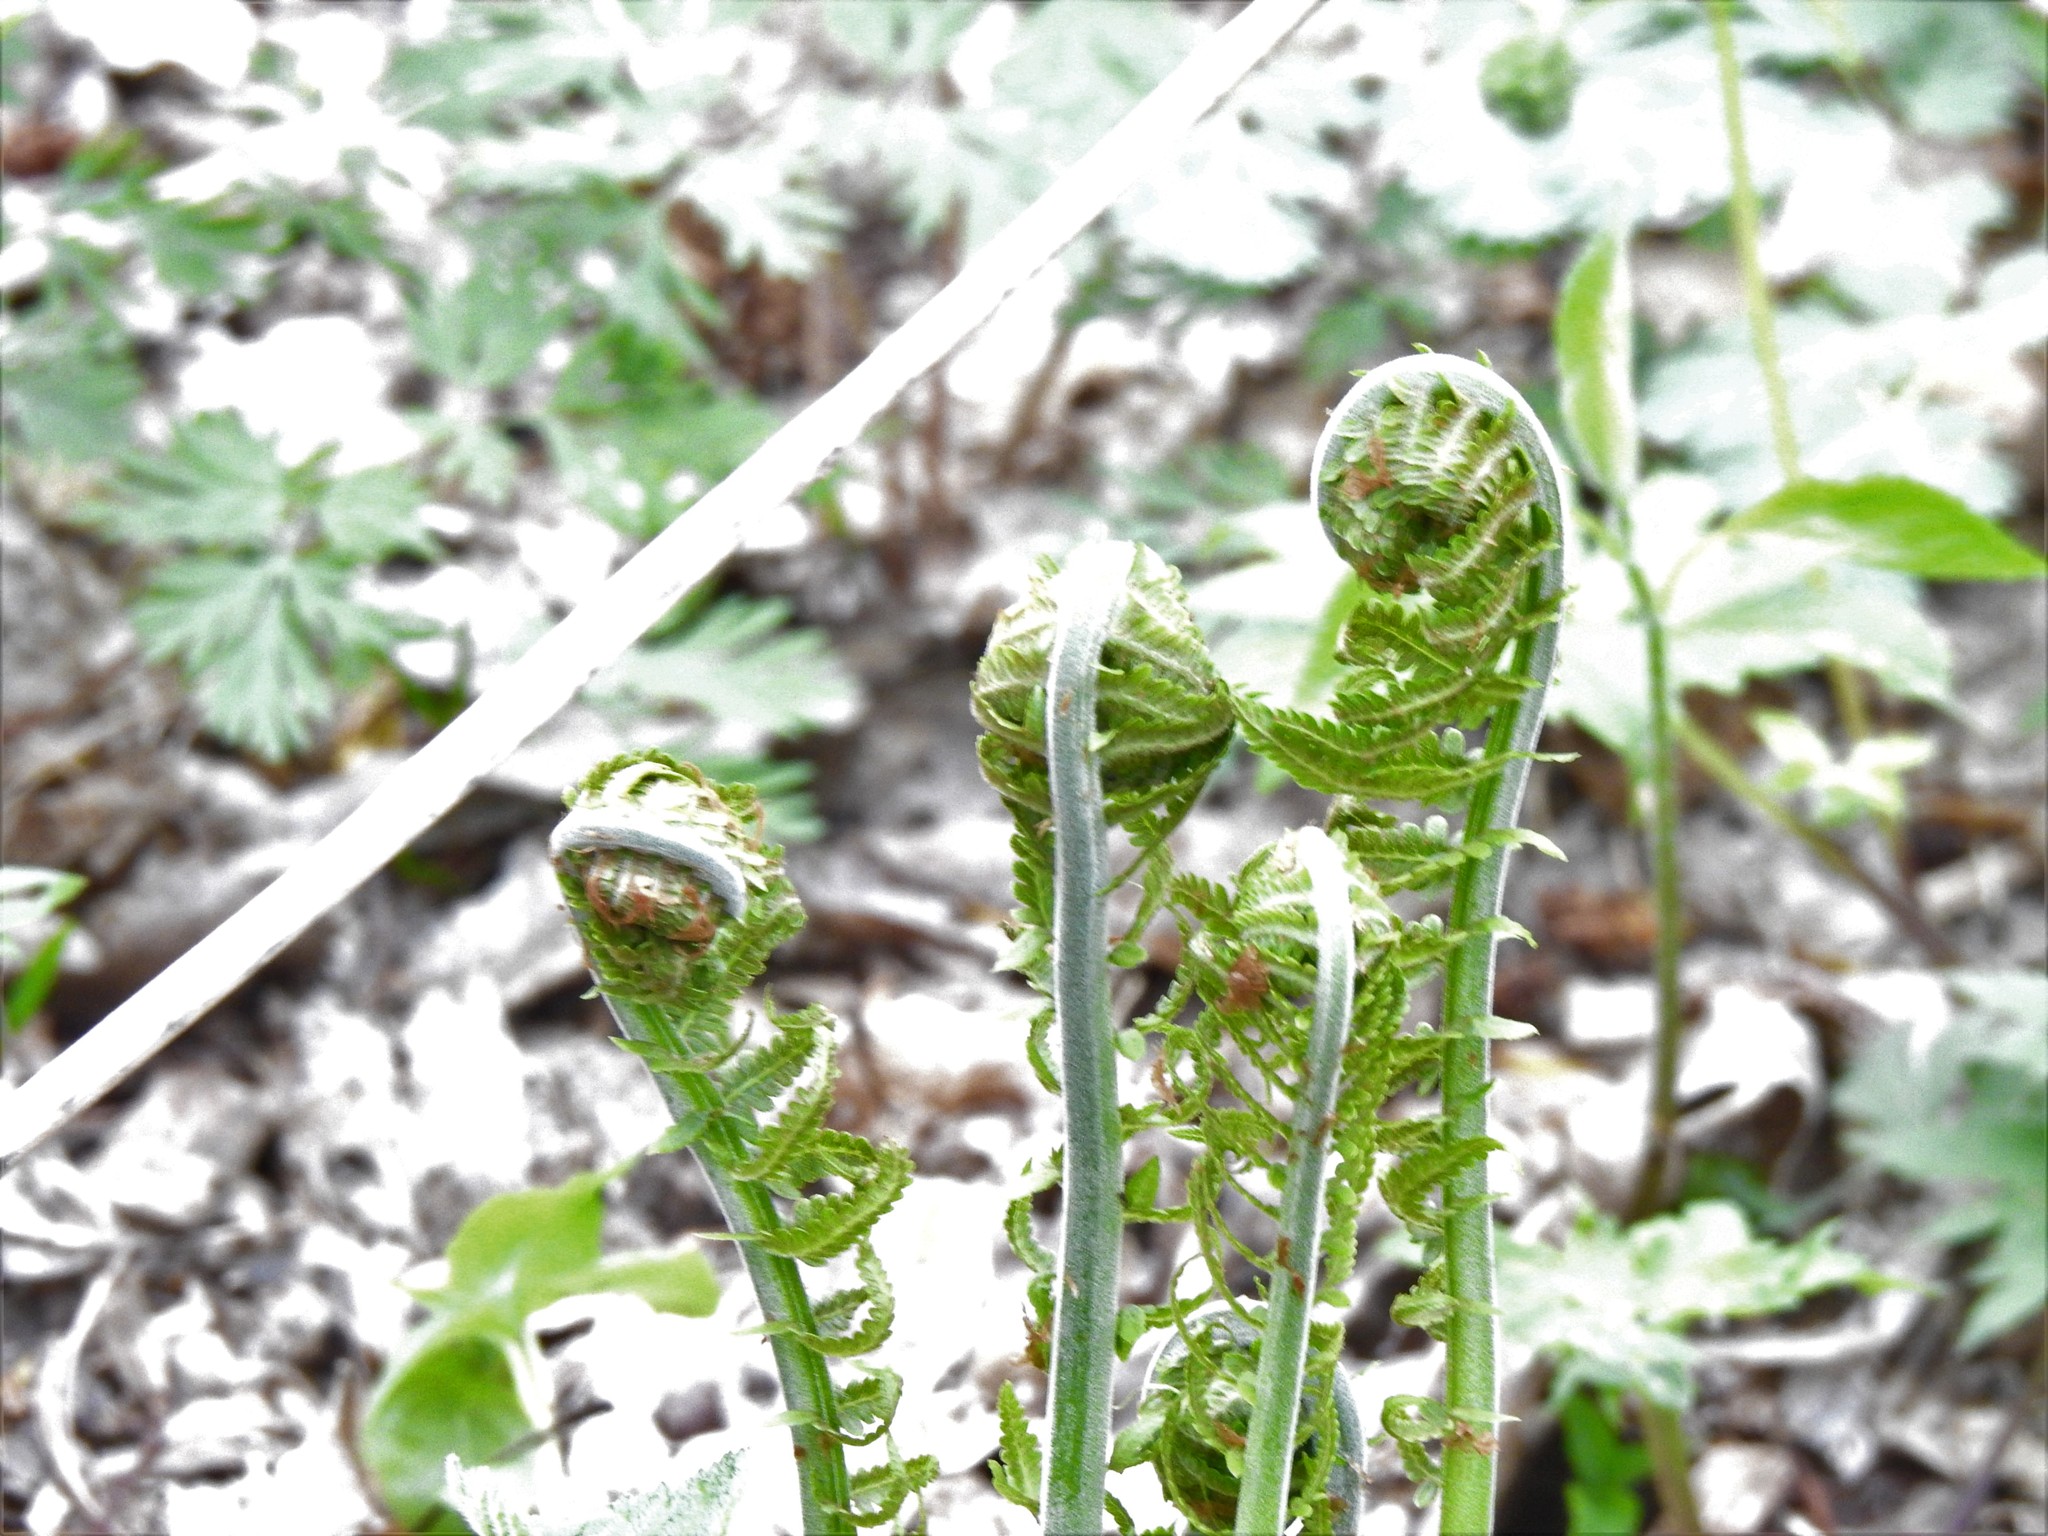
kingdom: Plantae
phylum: Tracheophyta
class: Polypodiopsida
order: Polypodiales
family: Onocleaceae
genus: Matteuccia
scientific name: Matteuccia struthiopteris
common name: Ostrich fern
